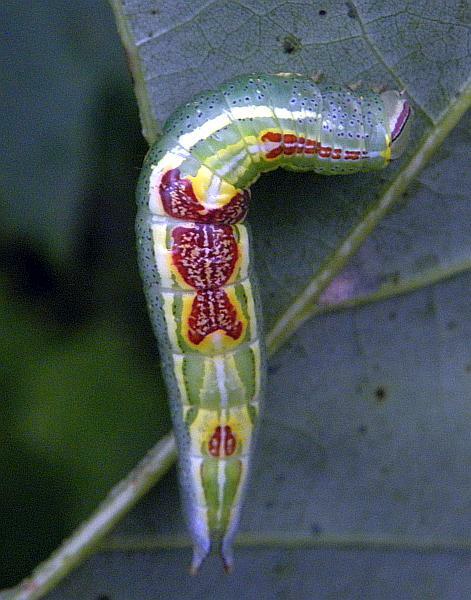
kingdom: Animalia
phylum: Arthropoda
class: Insecta
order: Lepidoptera
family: Notodontidae
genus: Disphragis
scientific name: Disphragis Cecrita guttivitta
